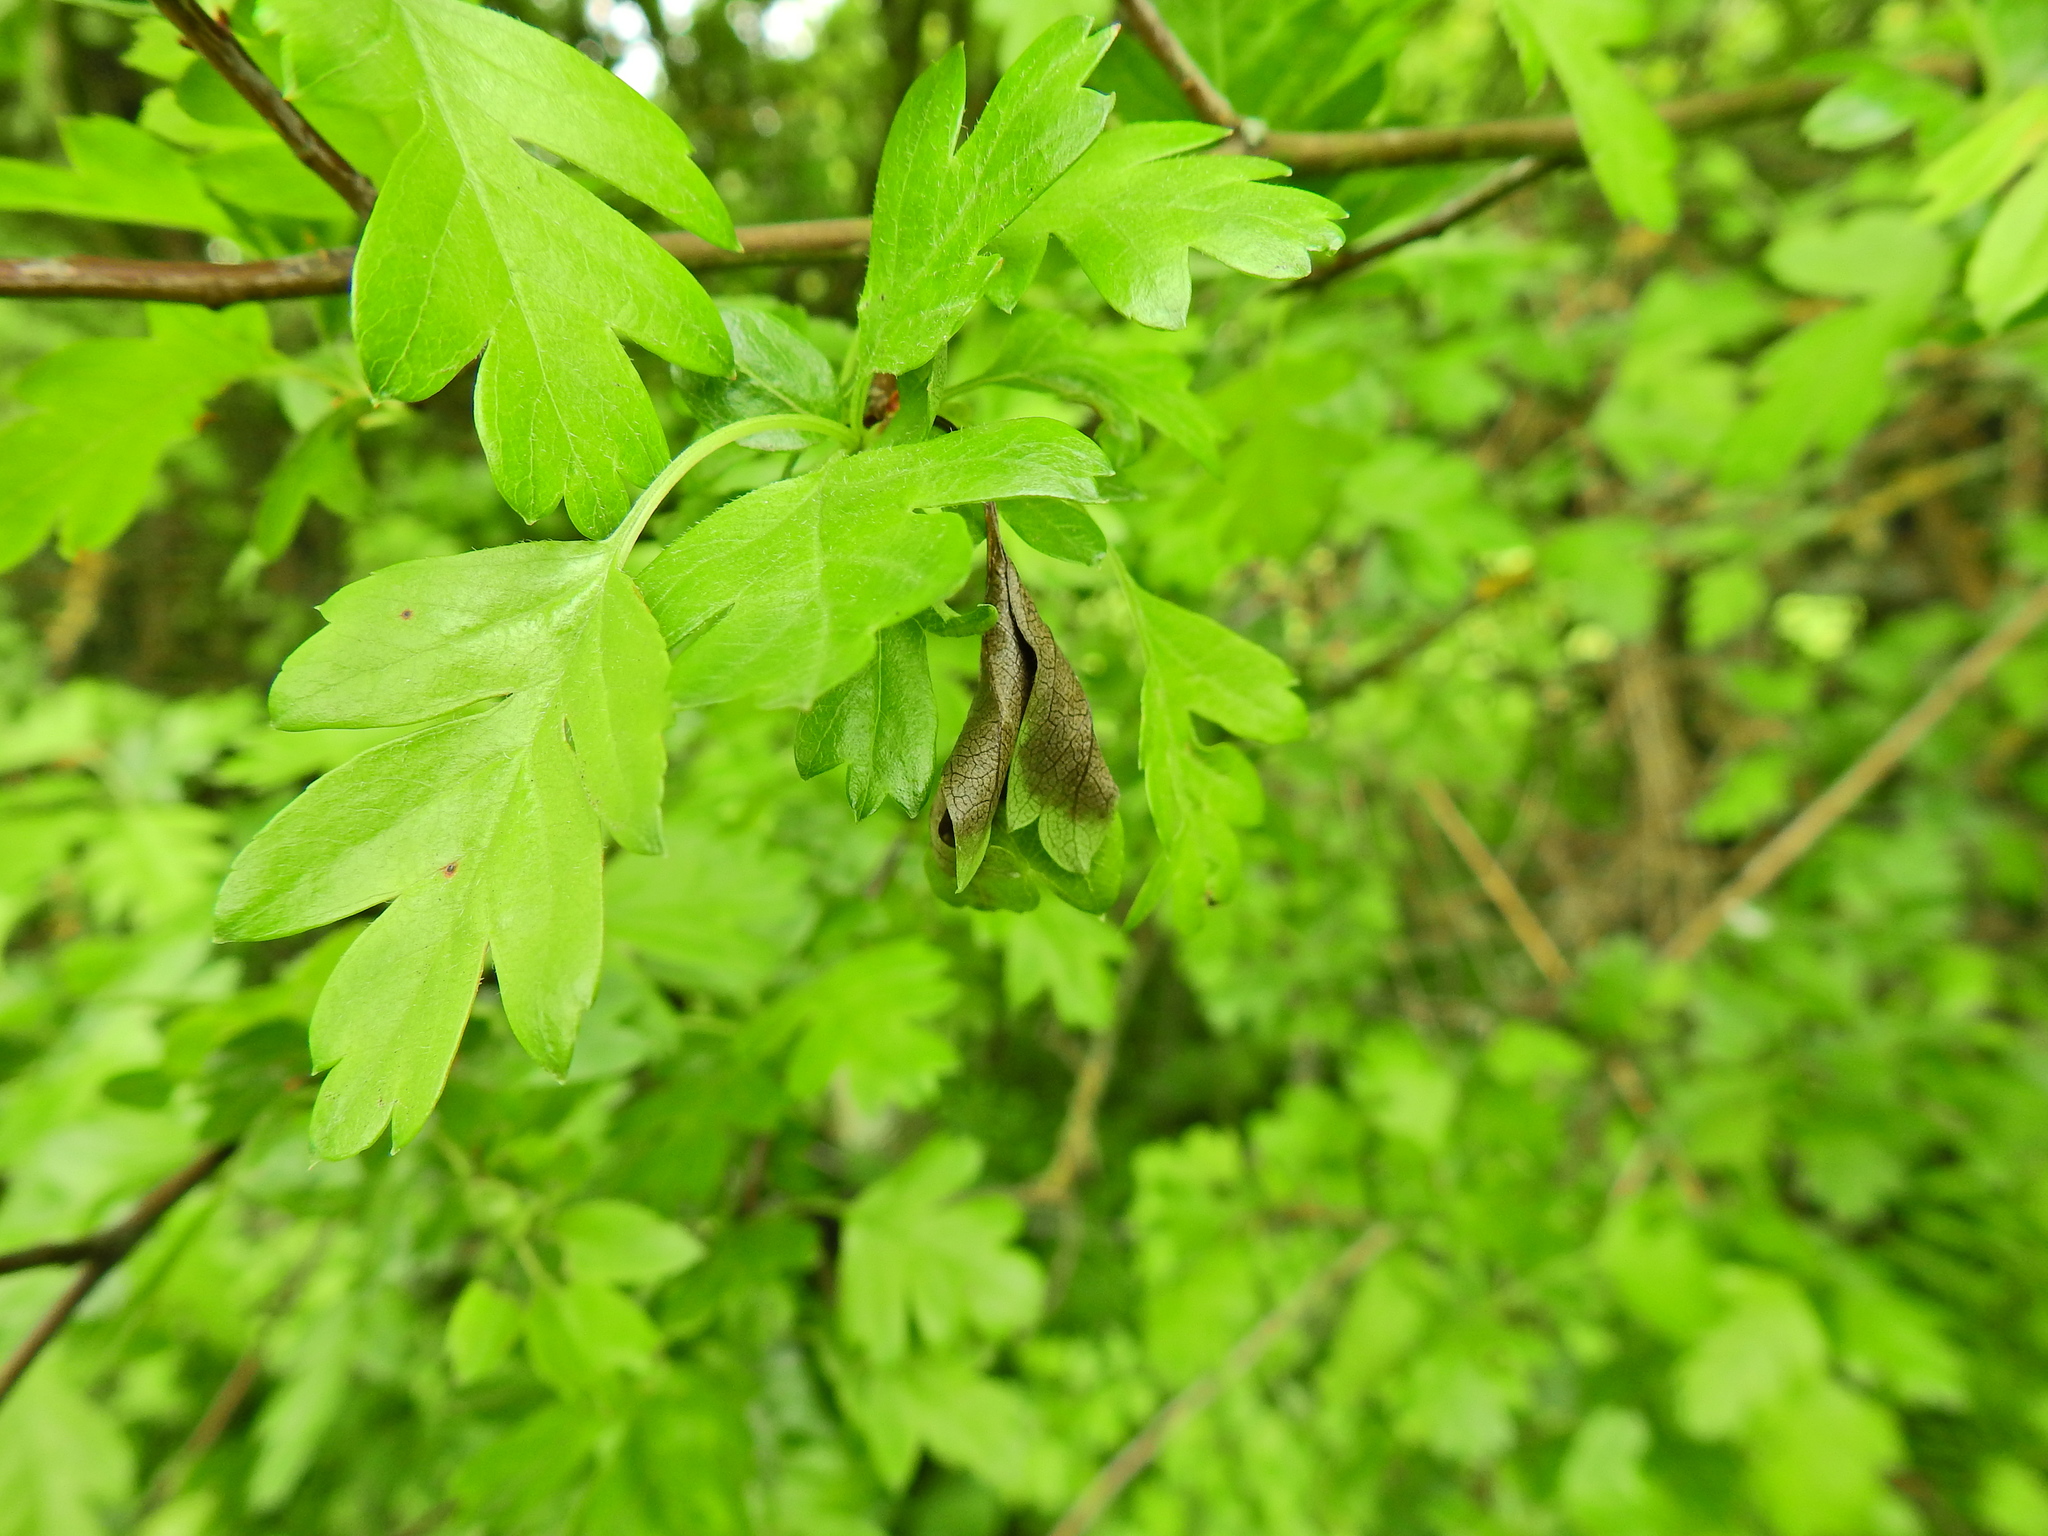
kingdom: Plantae
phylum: Tracheophyta
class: Magnoliopsida
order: Rosales
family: Rosaceae
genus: Crataegus
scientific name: Crataegus monogyna
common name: Hawthorn
